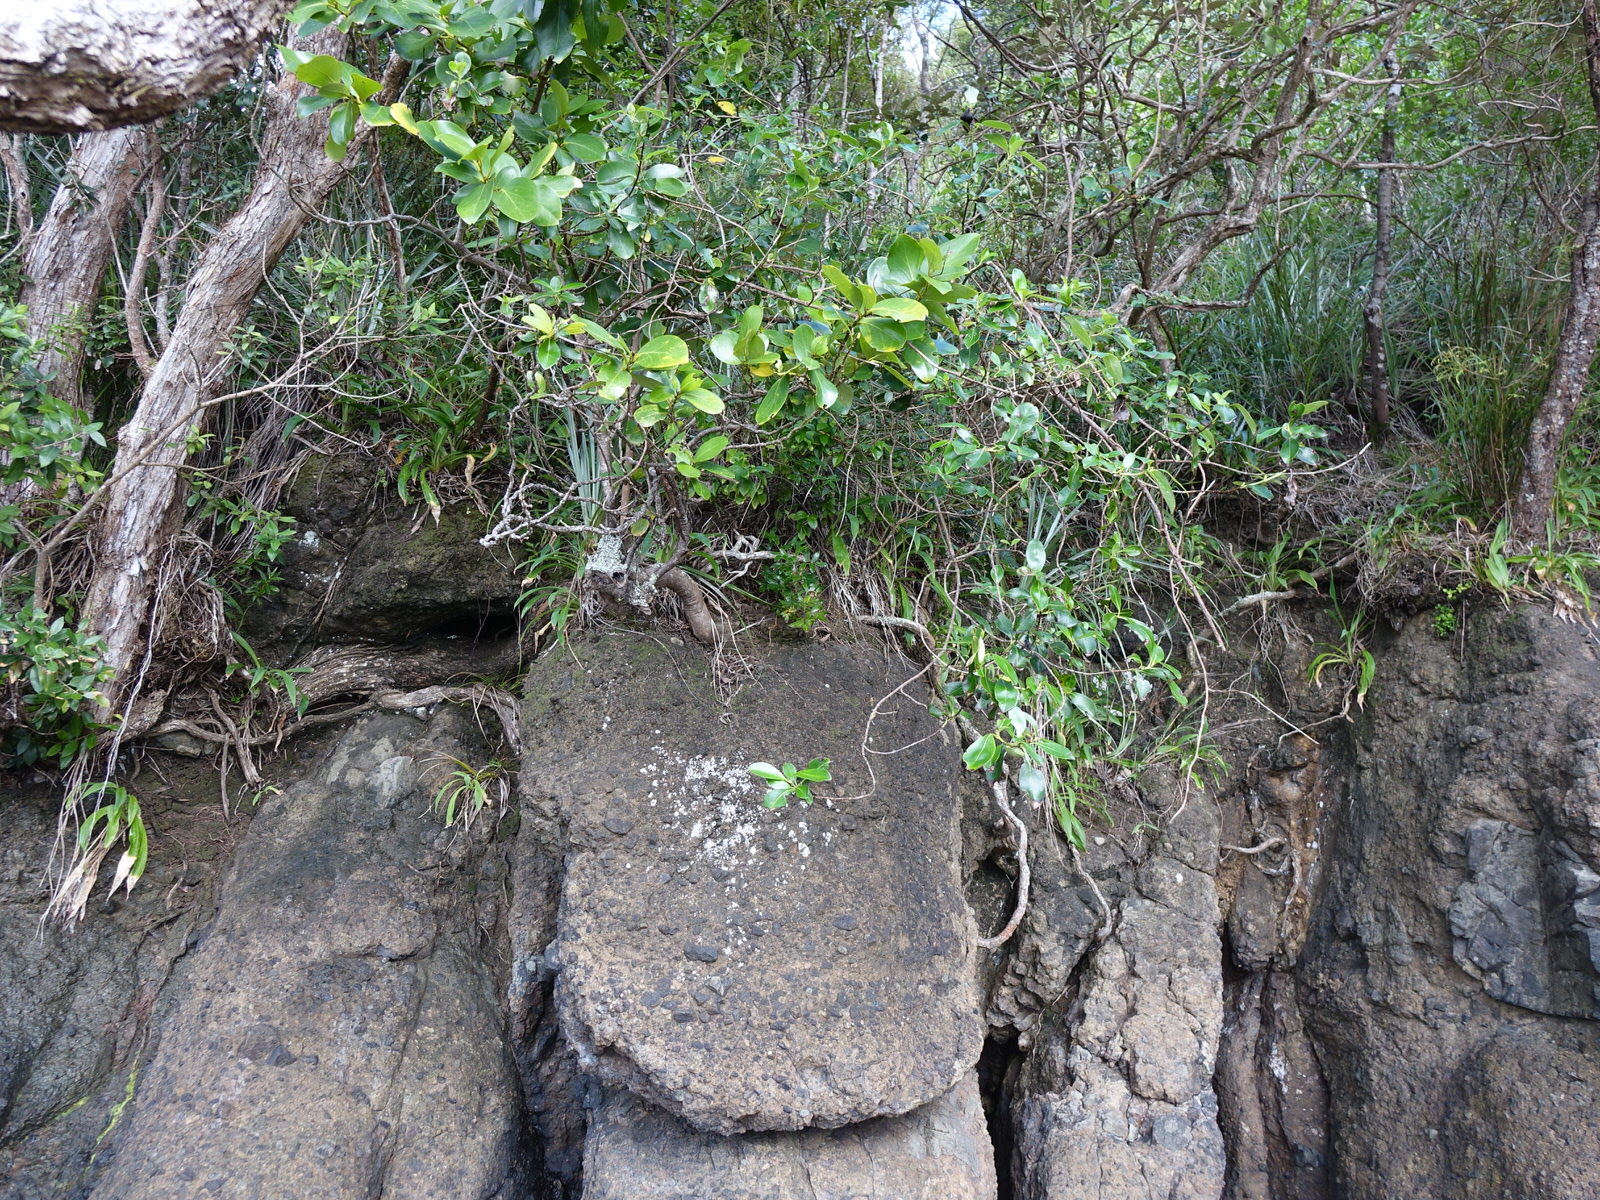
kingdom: Plantae
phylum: Tracheophyta
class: Magnoliopsida
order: Apiales
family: Apiaceae
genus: Scandia
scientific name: Scandia rosifolia
